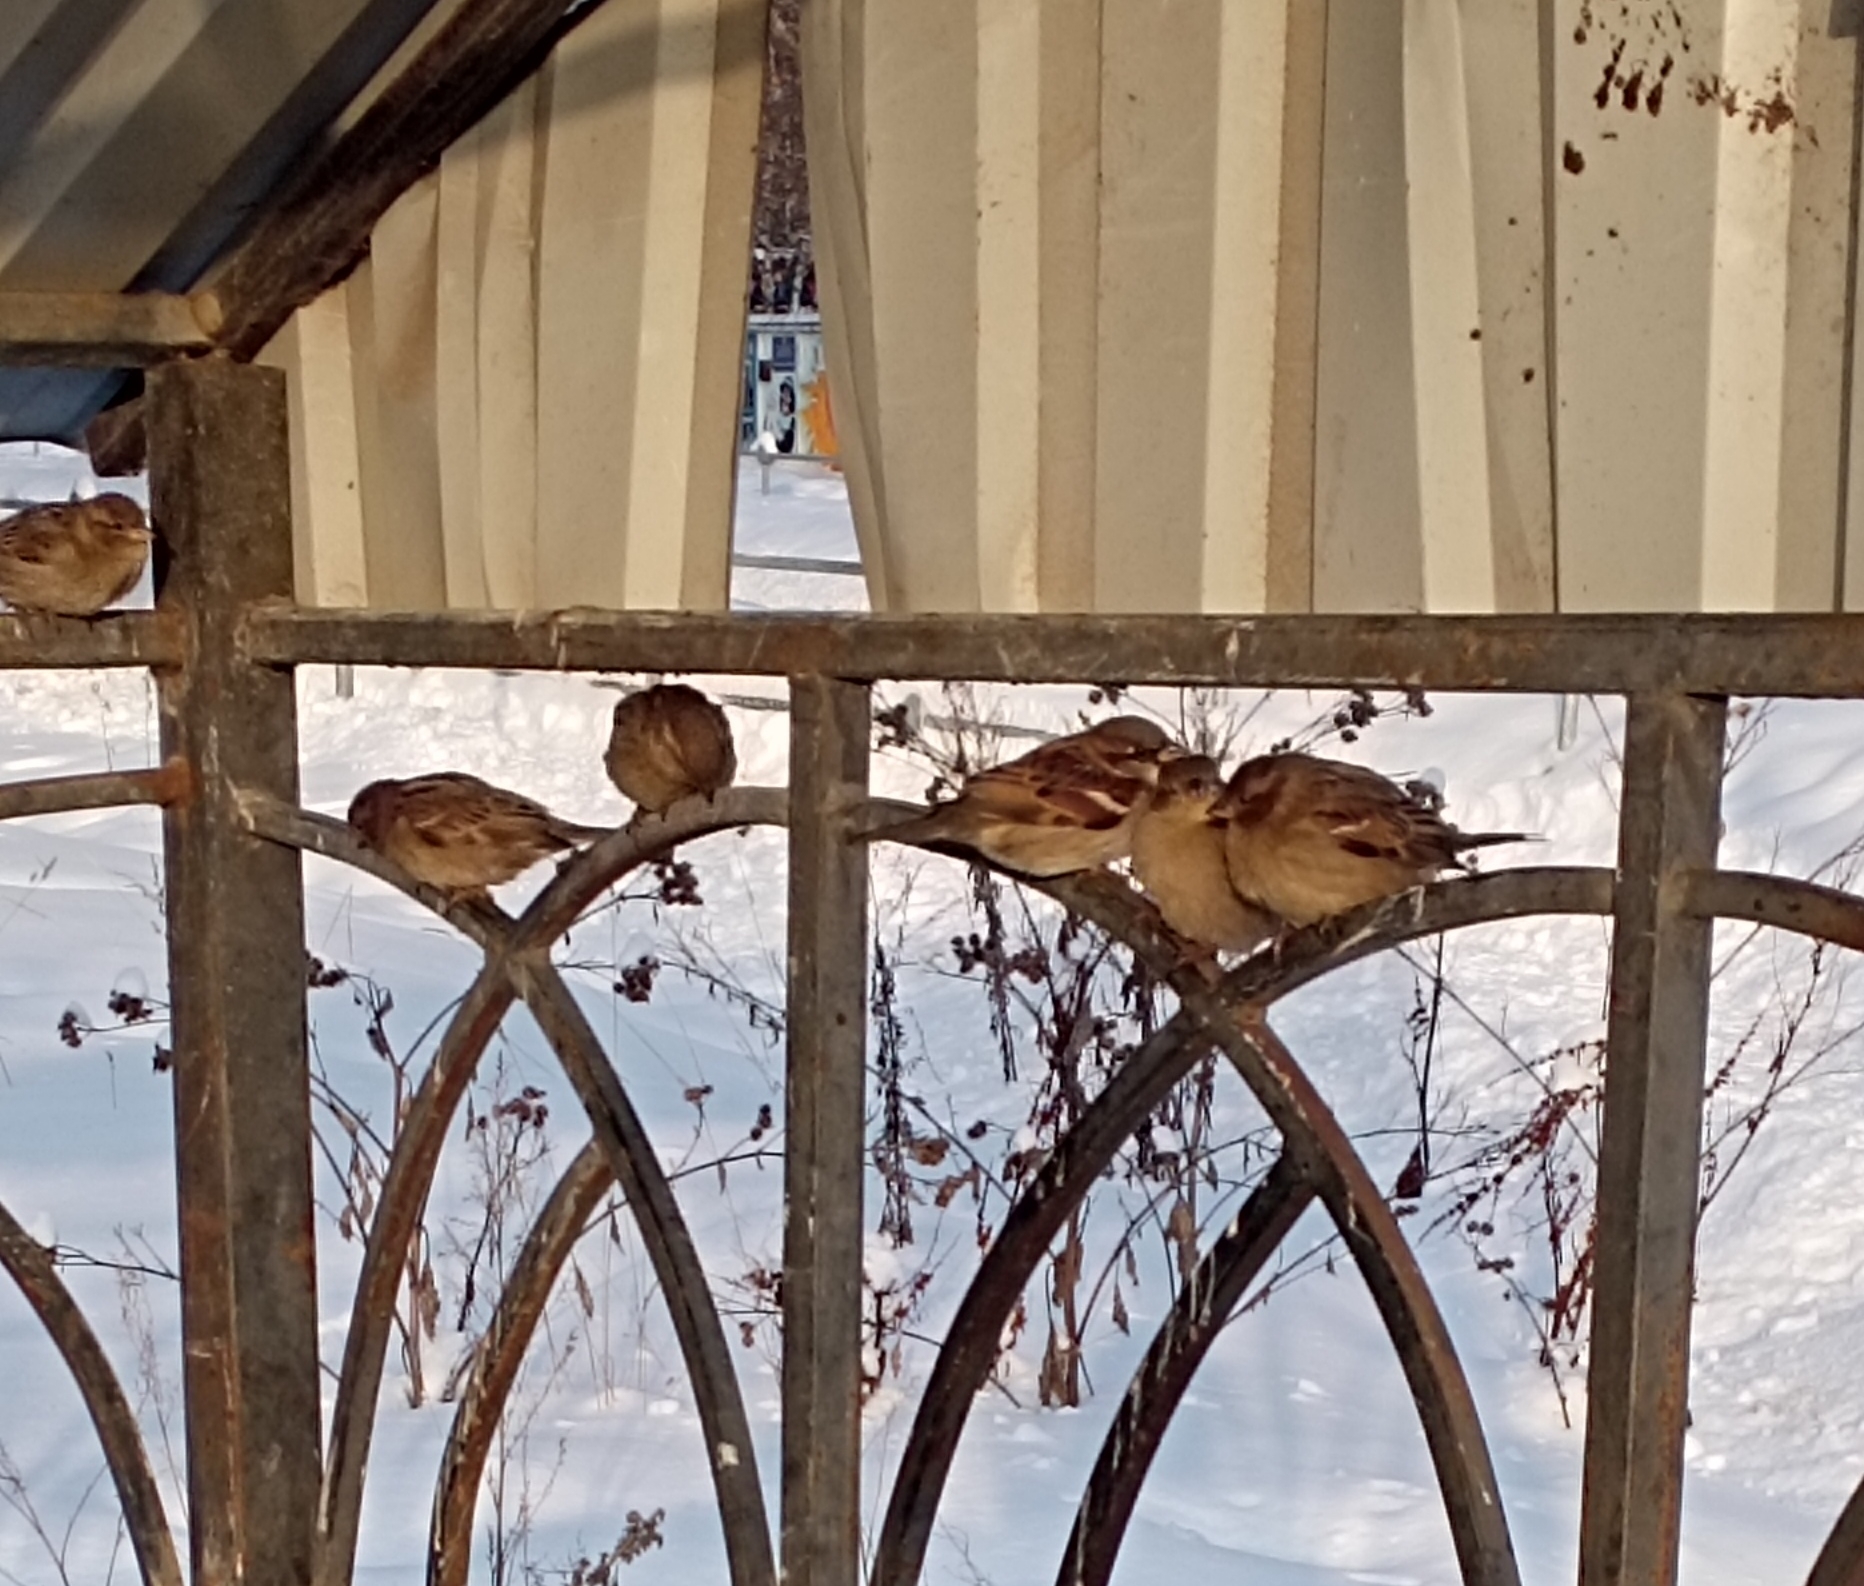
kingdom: Animalia
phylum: Chordata
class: Aves
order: Passeriformes
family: Passeridae
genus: Passer
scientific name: Passer domesticus
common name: House sparrow
